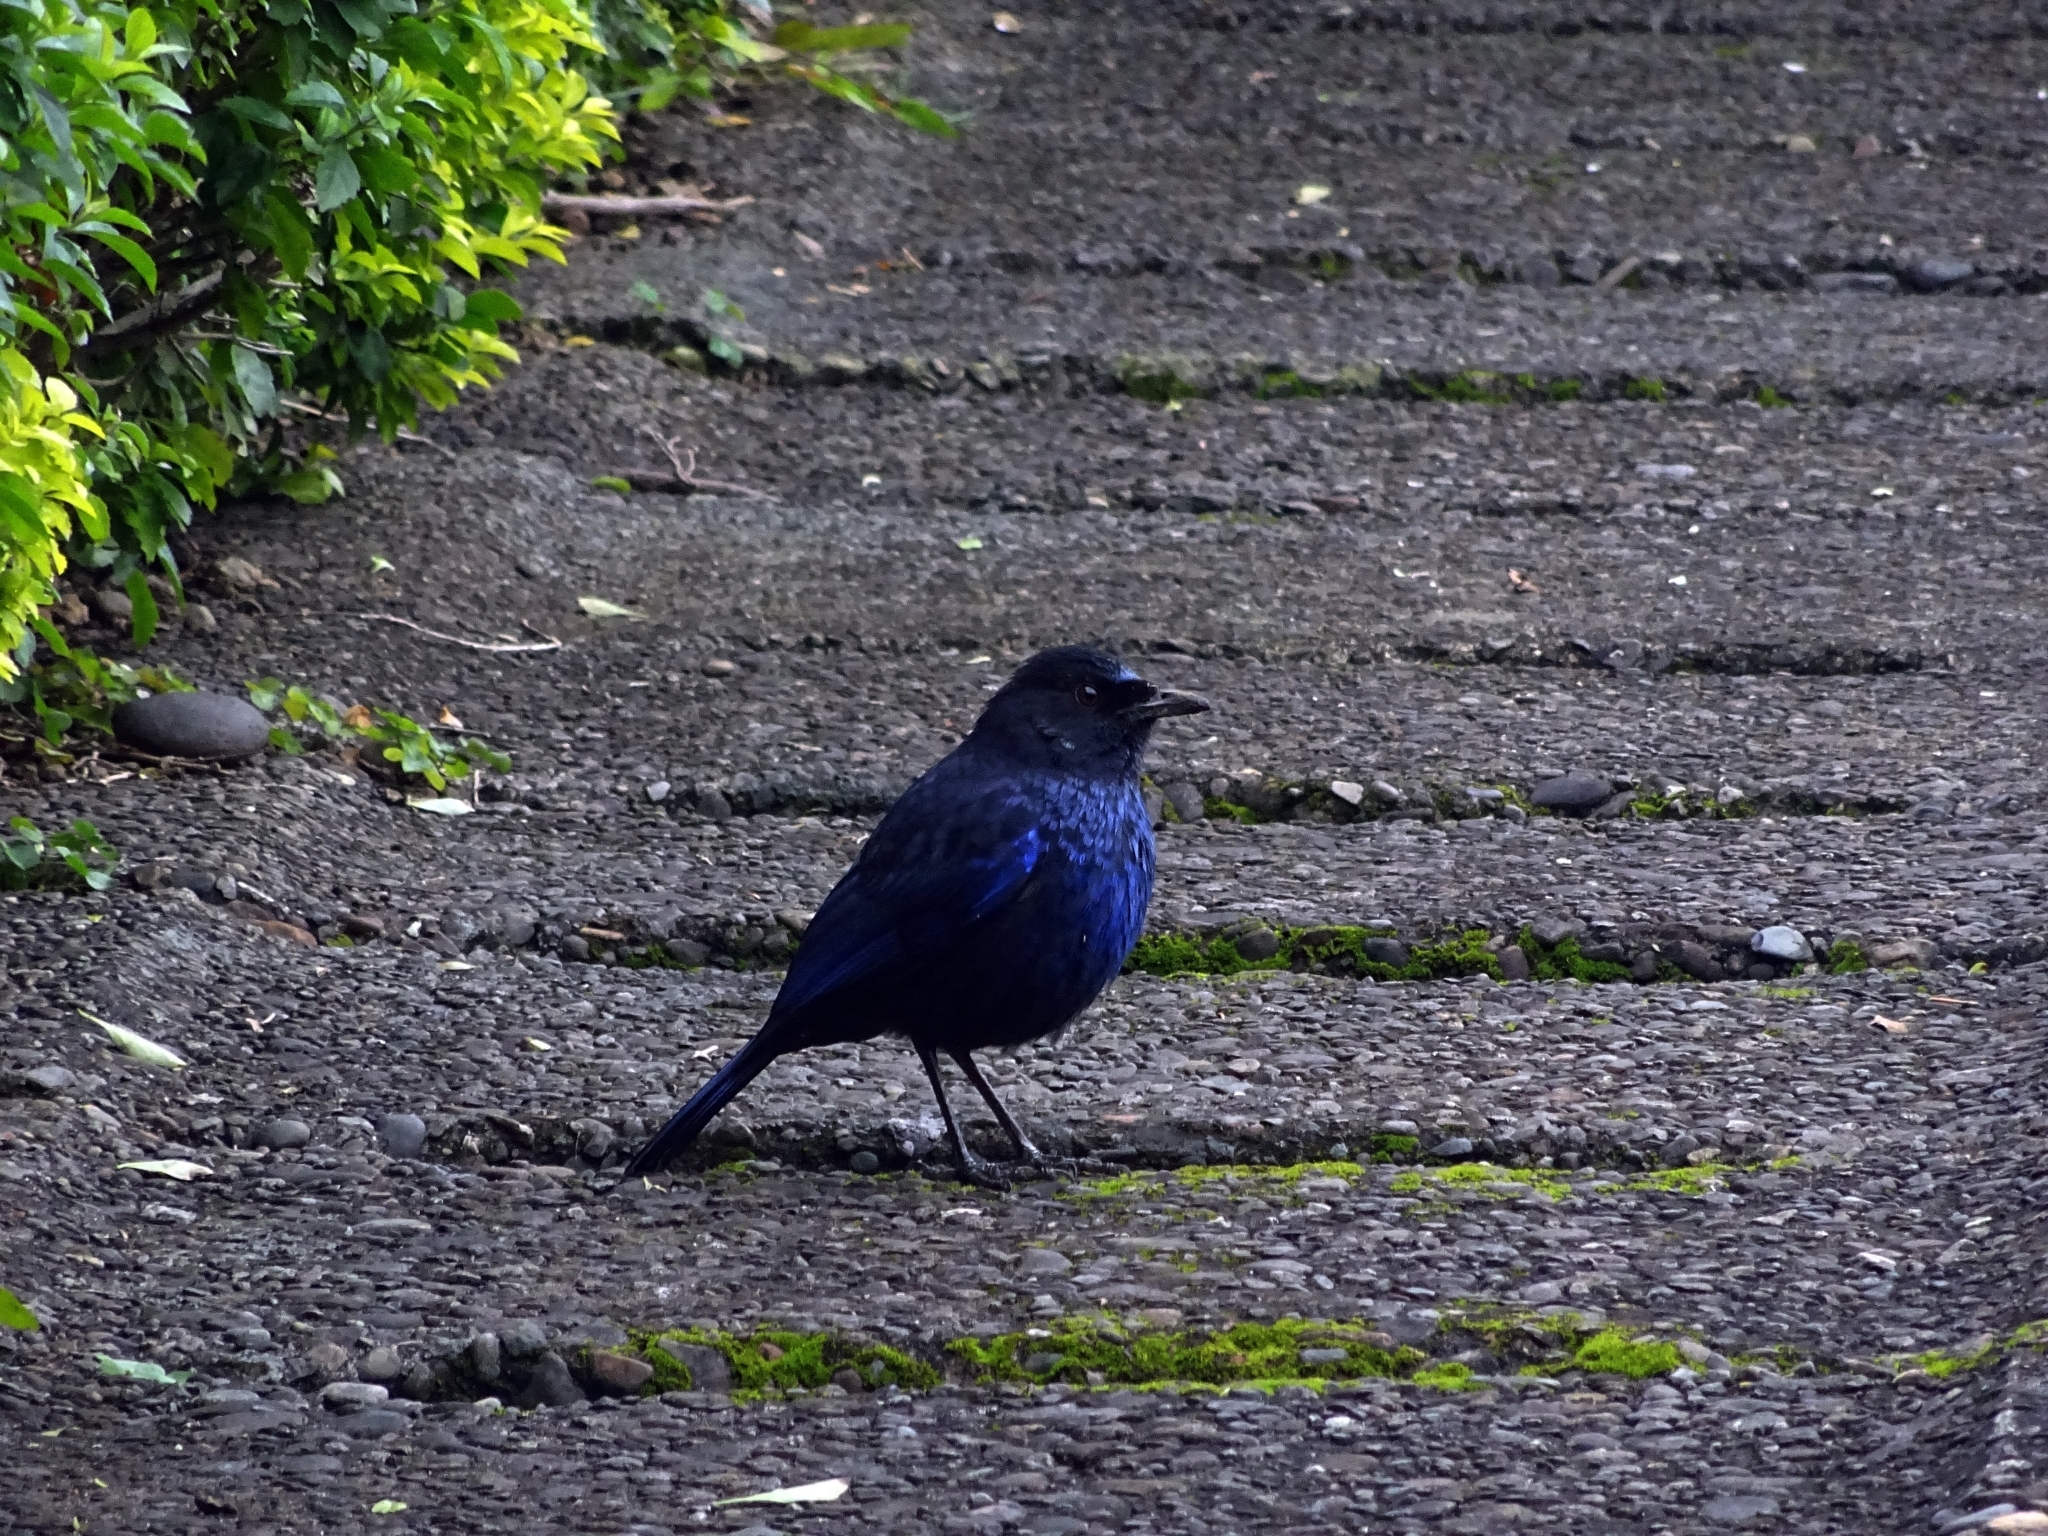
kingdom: Animalia
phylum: Chordata
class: Aves
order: Passeriformes
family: Muscicapidae
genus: Myophonus
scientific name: Myophonus insularis
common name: Taiwan whistling-thrush
